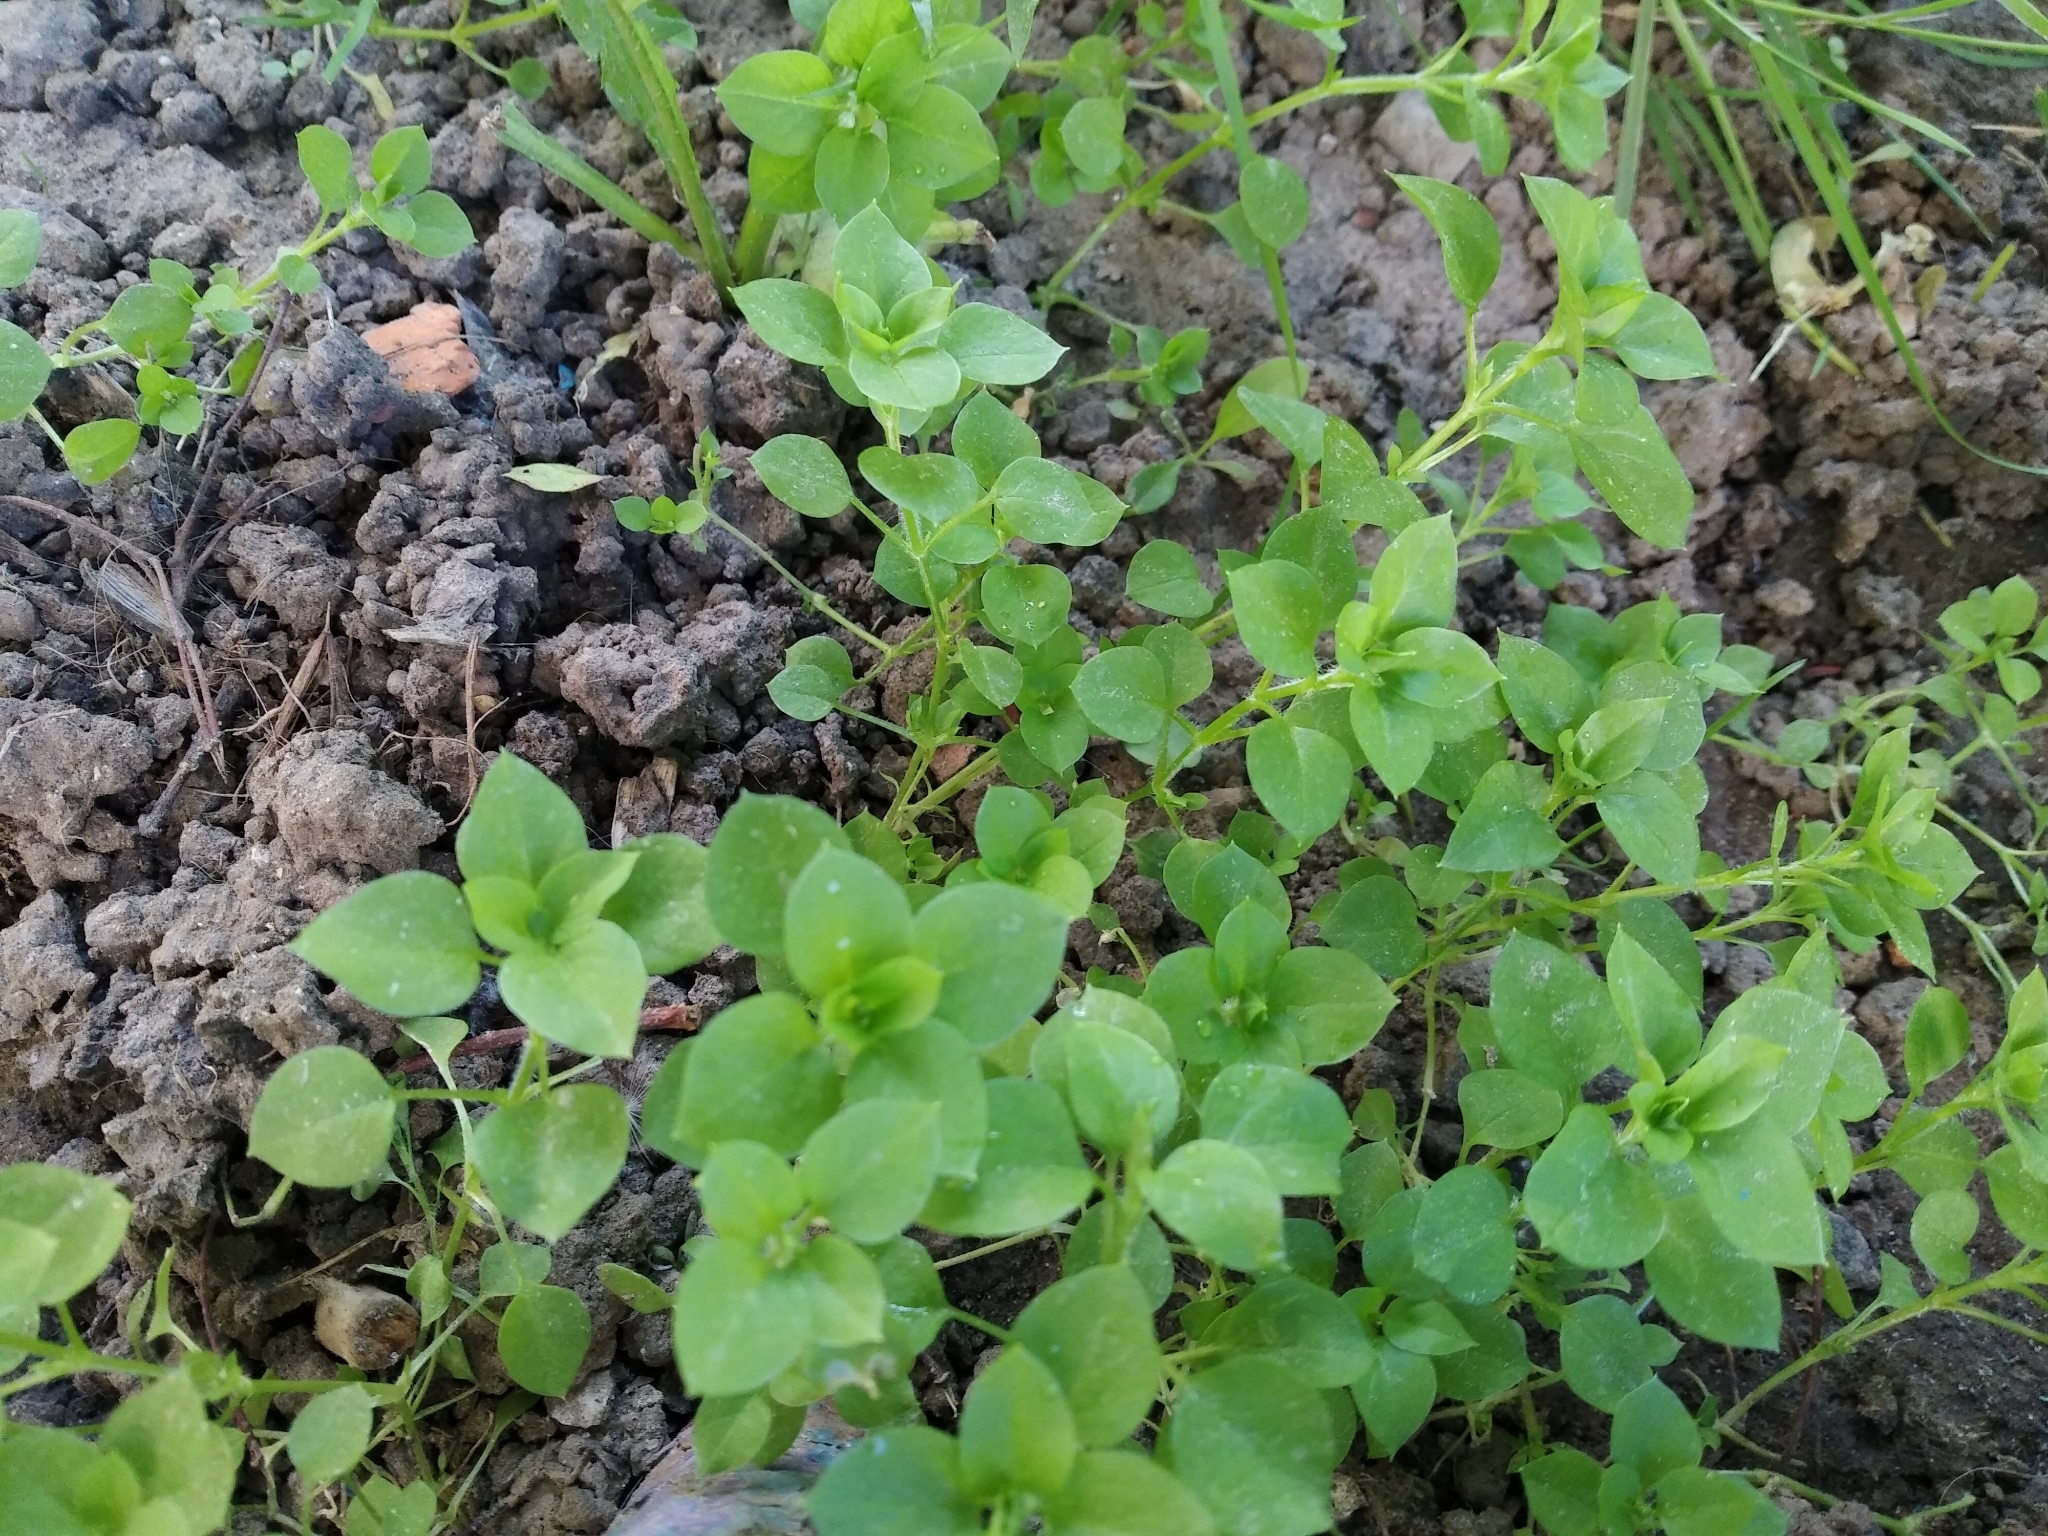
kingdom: Plantae
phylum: Tracheophyta
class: Magnoliopsida
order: Caryophyllales
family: Caryophyllaceae
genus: Stellaria
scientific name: Stellaria media
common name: Common chickweed
